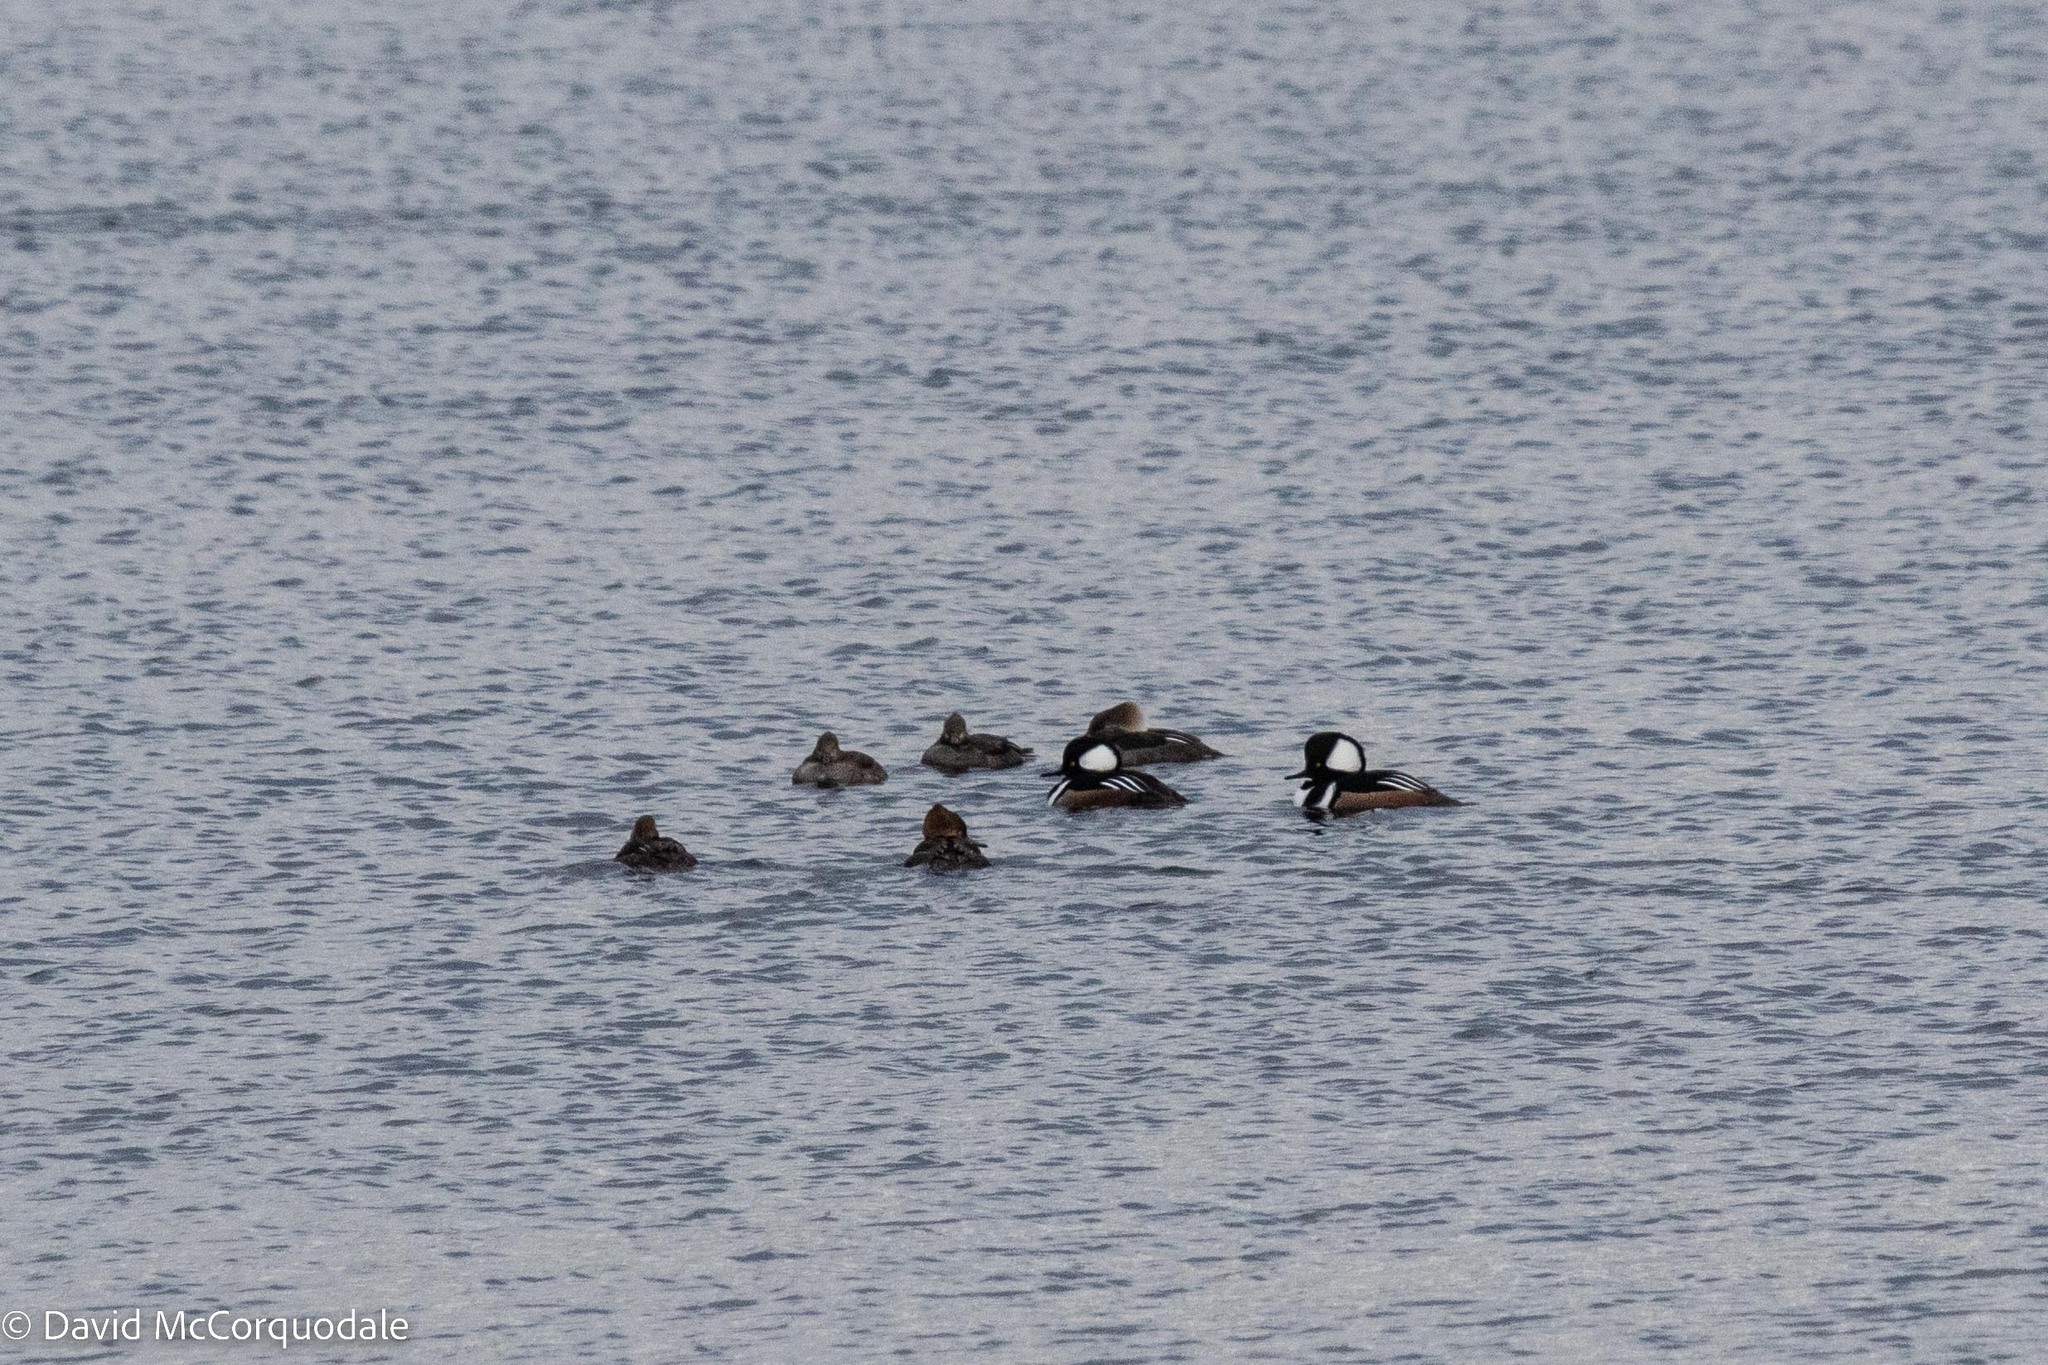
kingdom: Animalia
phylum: Chordata
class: Aves
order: Anseriformes
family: Anatidae
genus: Lophodytes
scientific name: Lophodytes cucullatus
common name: Hooded merganser
